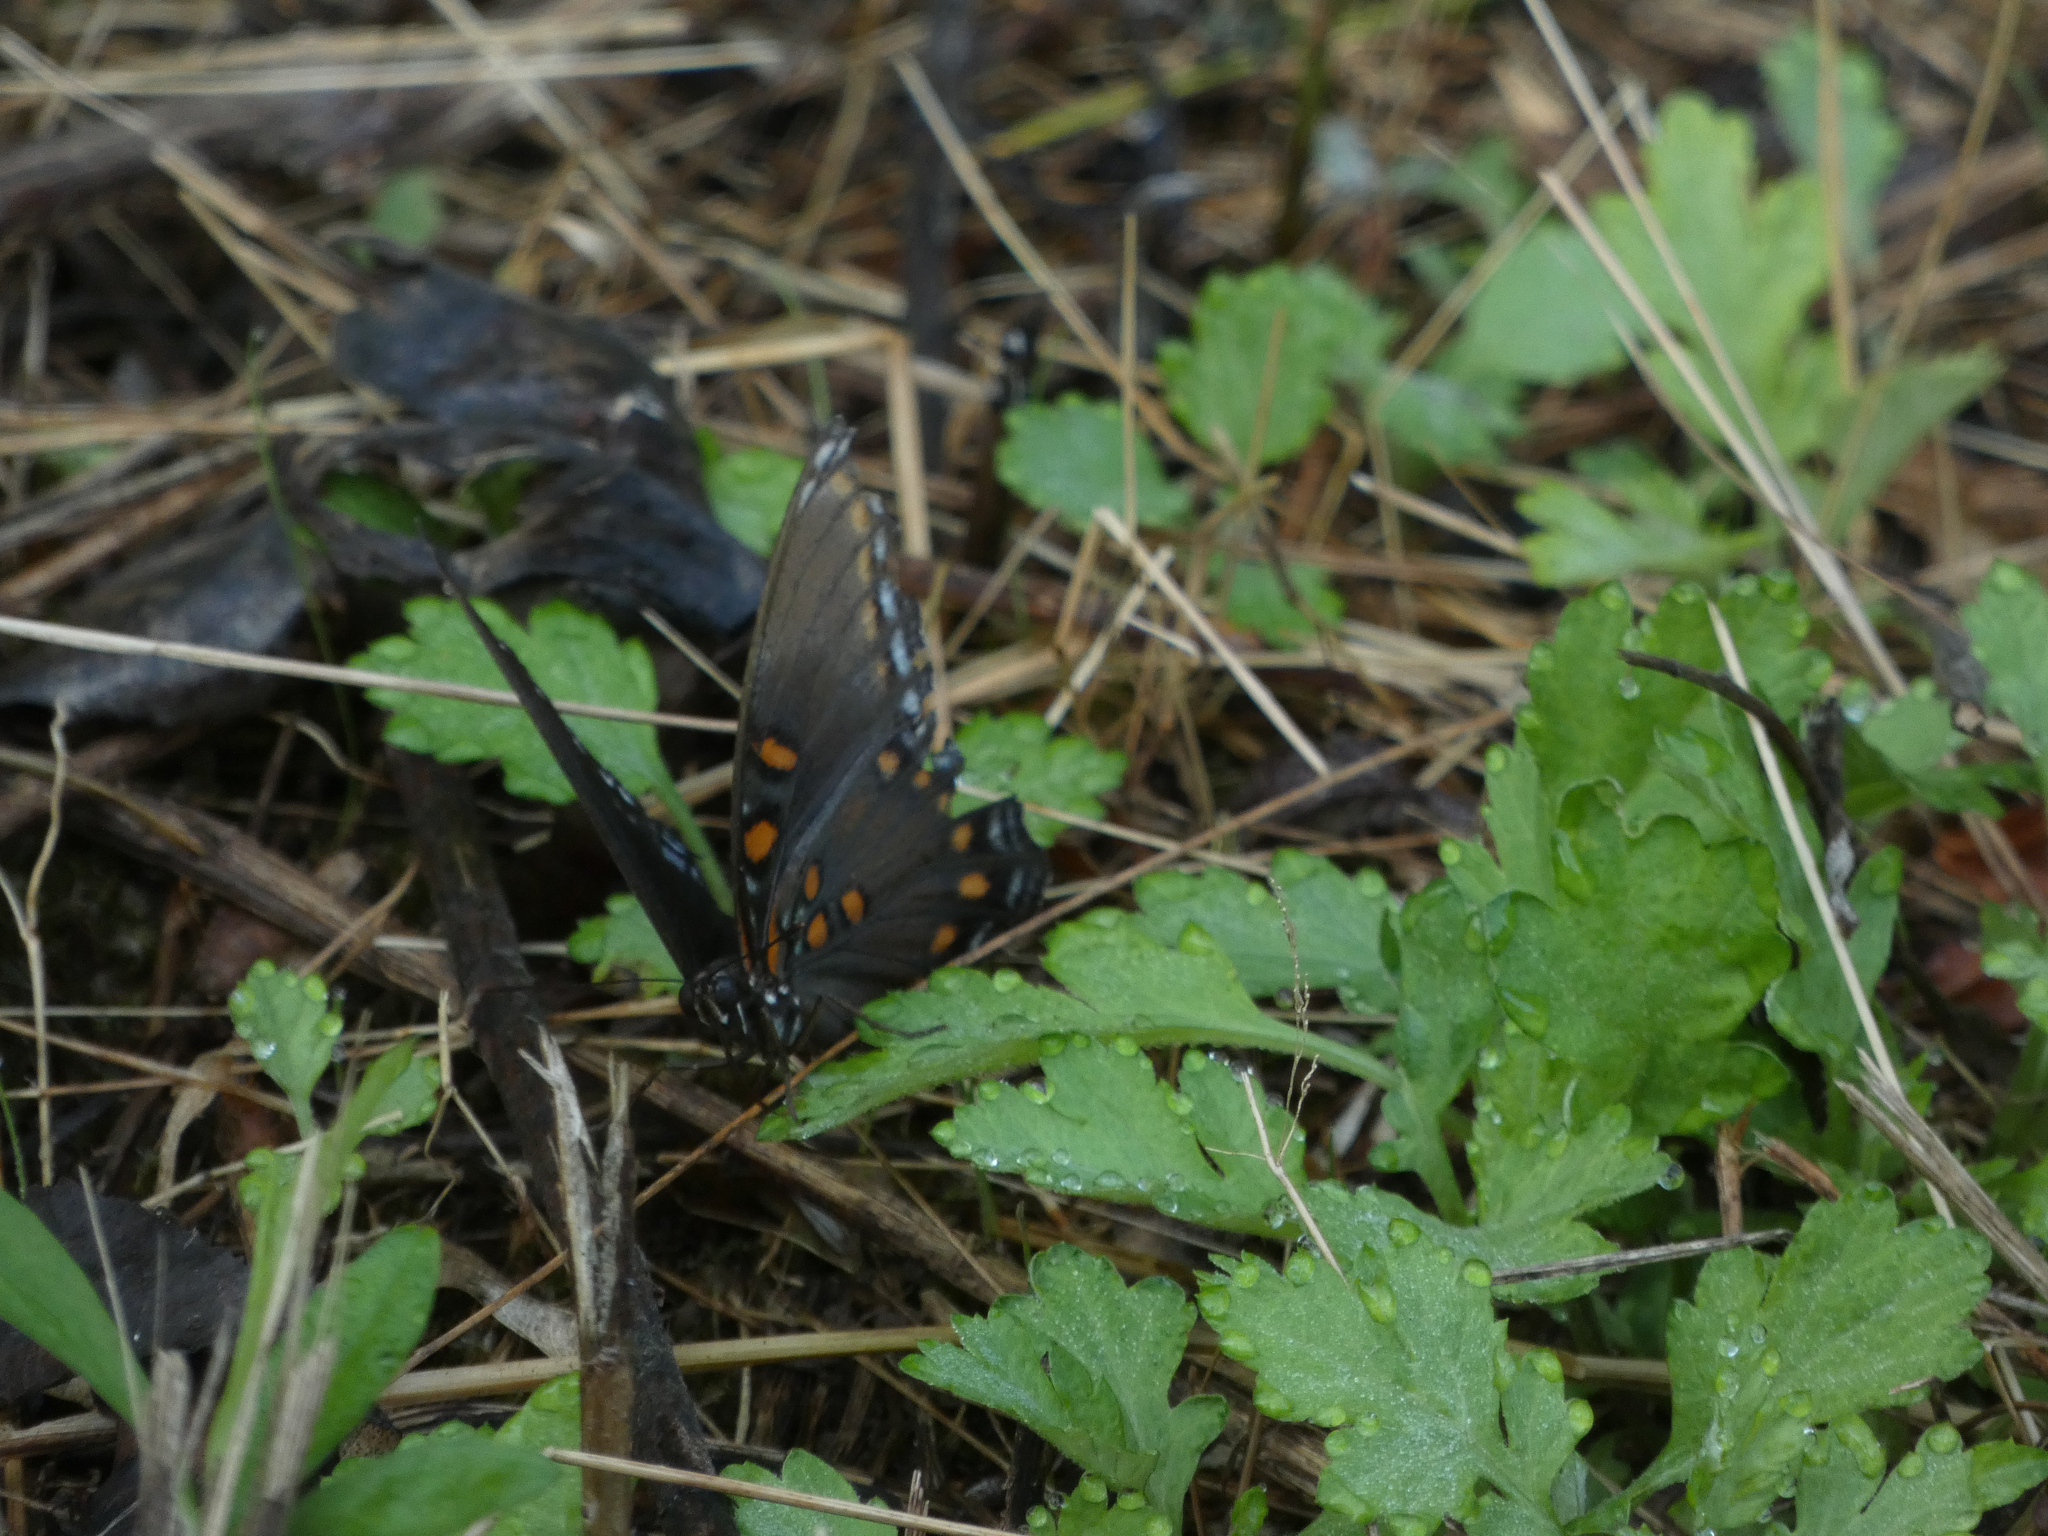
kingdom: Animalia
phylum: Arthropoda
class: Insecta
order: Lepidoptera
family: Nymphalidae
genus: Limenitis
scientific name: Limenitis astyanax
